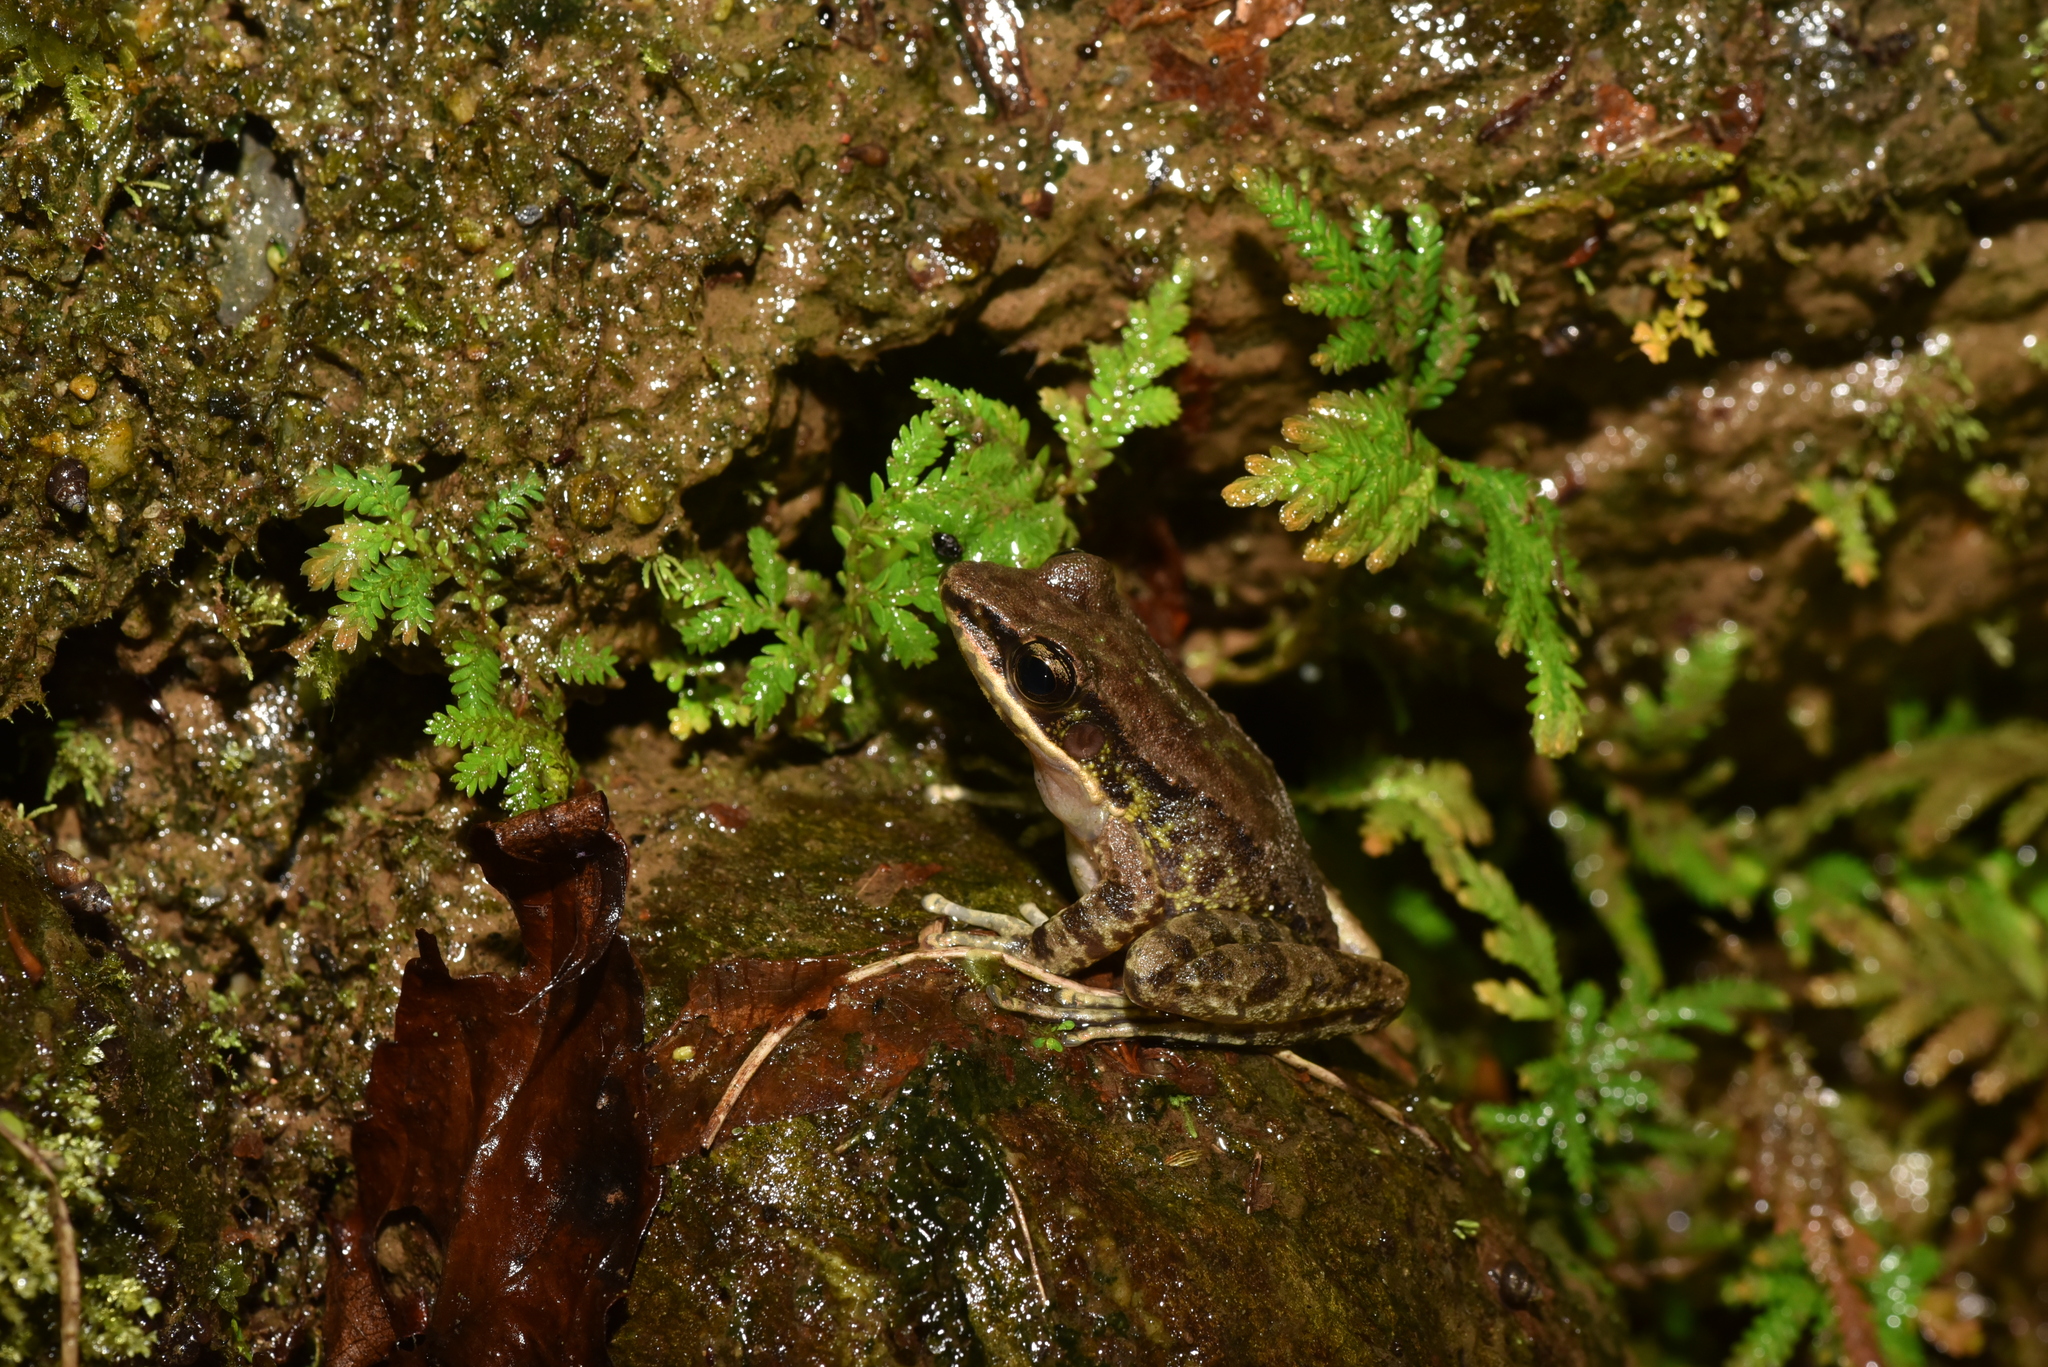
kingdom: Animalia
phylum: Chordata
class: Amphibia
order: Anura
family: Ranidae
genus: Odorrana
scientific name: Odorrana swinhoana
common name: Bangkimtsing frog
